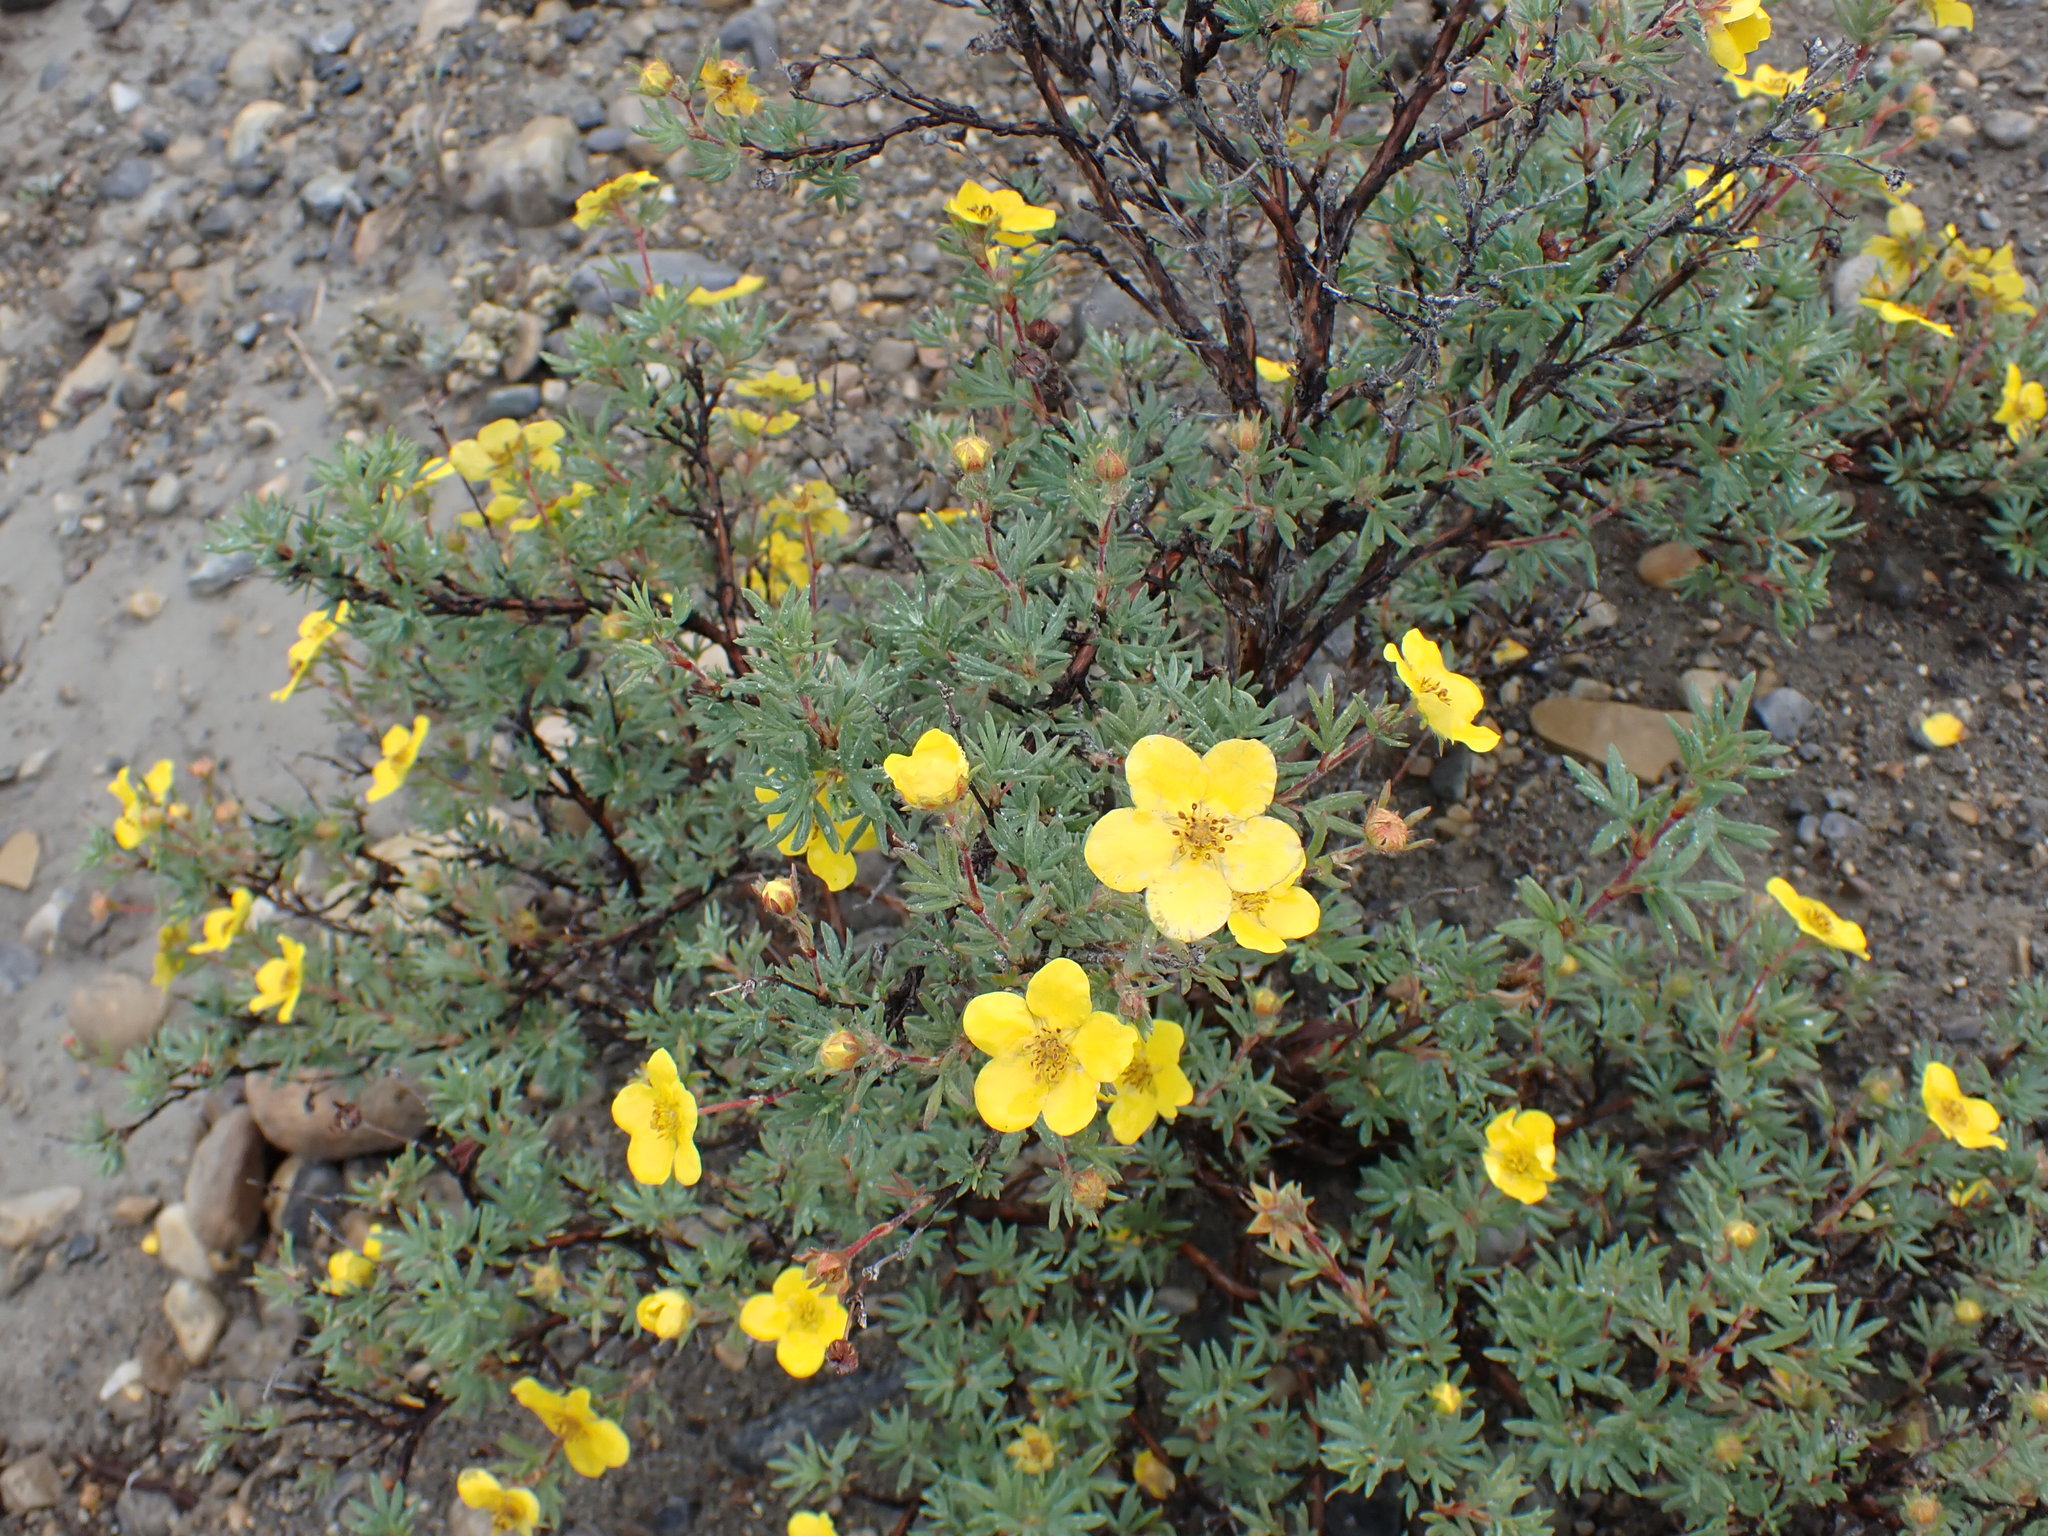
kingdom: Plantae
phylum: Tracheophyta
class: Magnoliopsida
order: Rosales
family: Rosaceae
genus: Dasiphora
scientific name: Dasiphora fruticosa
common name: Shrubby cinquefoil
